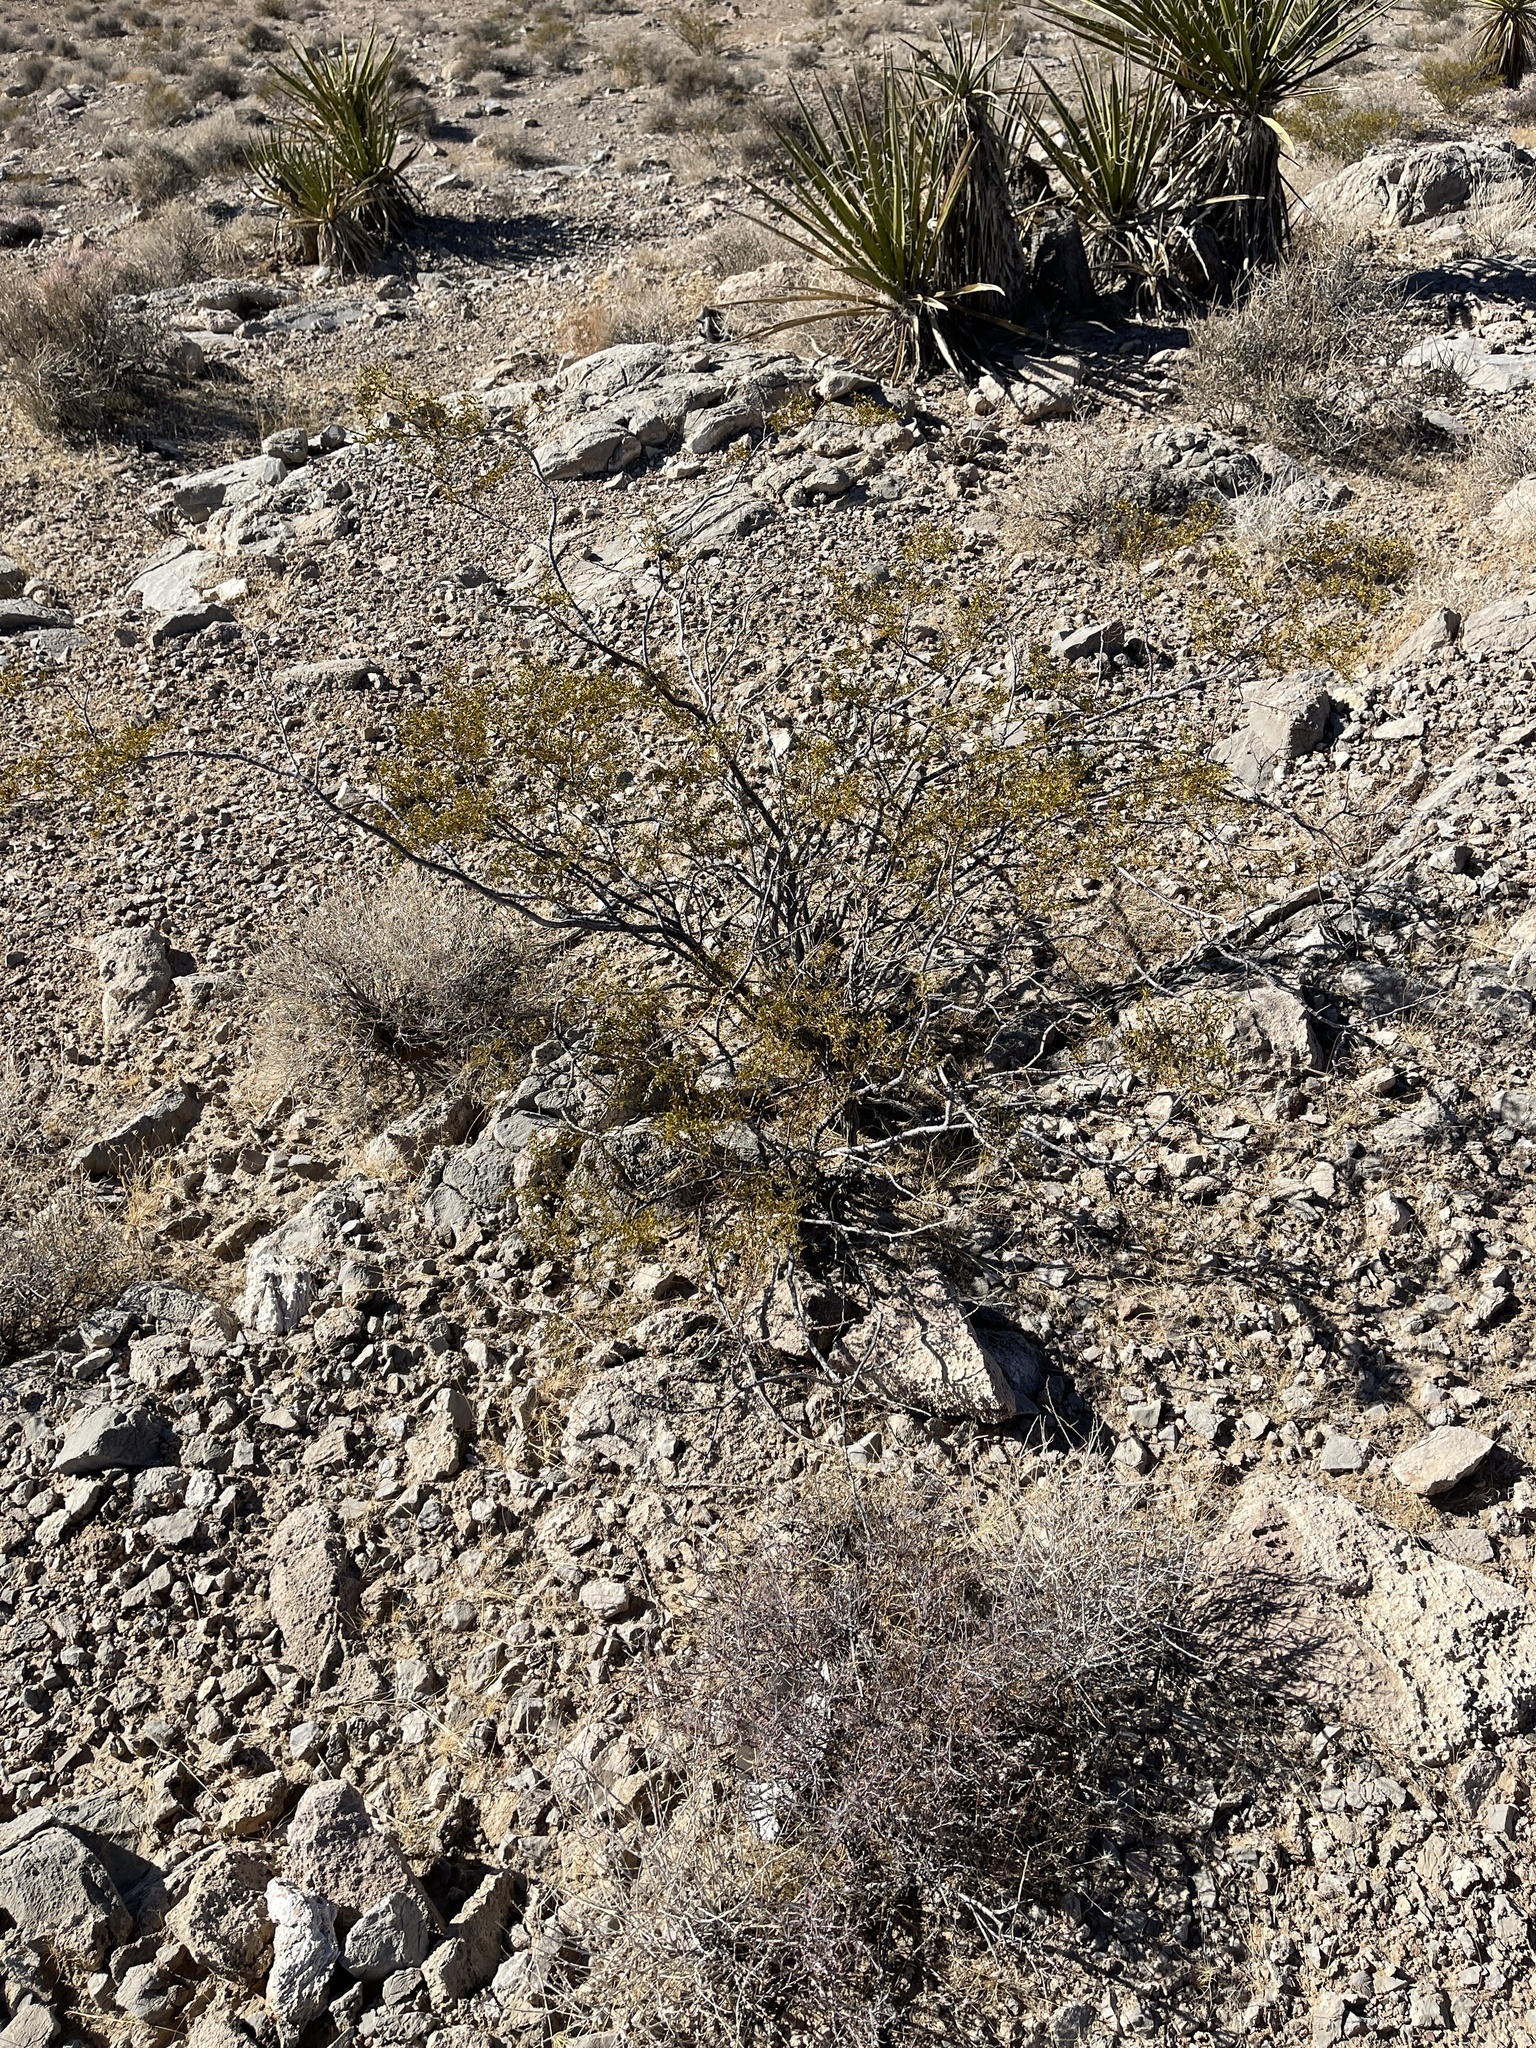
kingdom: Plantae
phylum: Tracheophyta
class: Magnoliopsida
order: Zygophyllales
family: Zygophyllaceae
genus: Larrea
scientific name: Larrea tridentata
